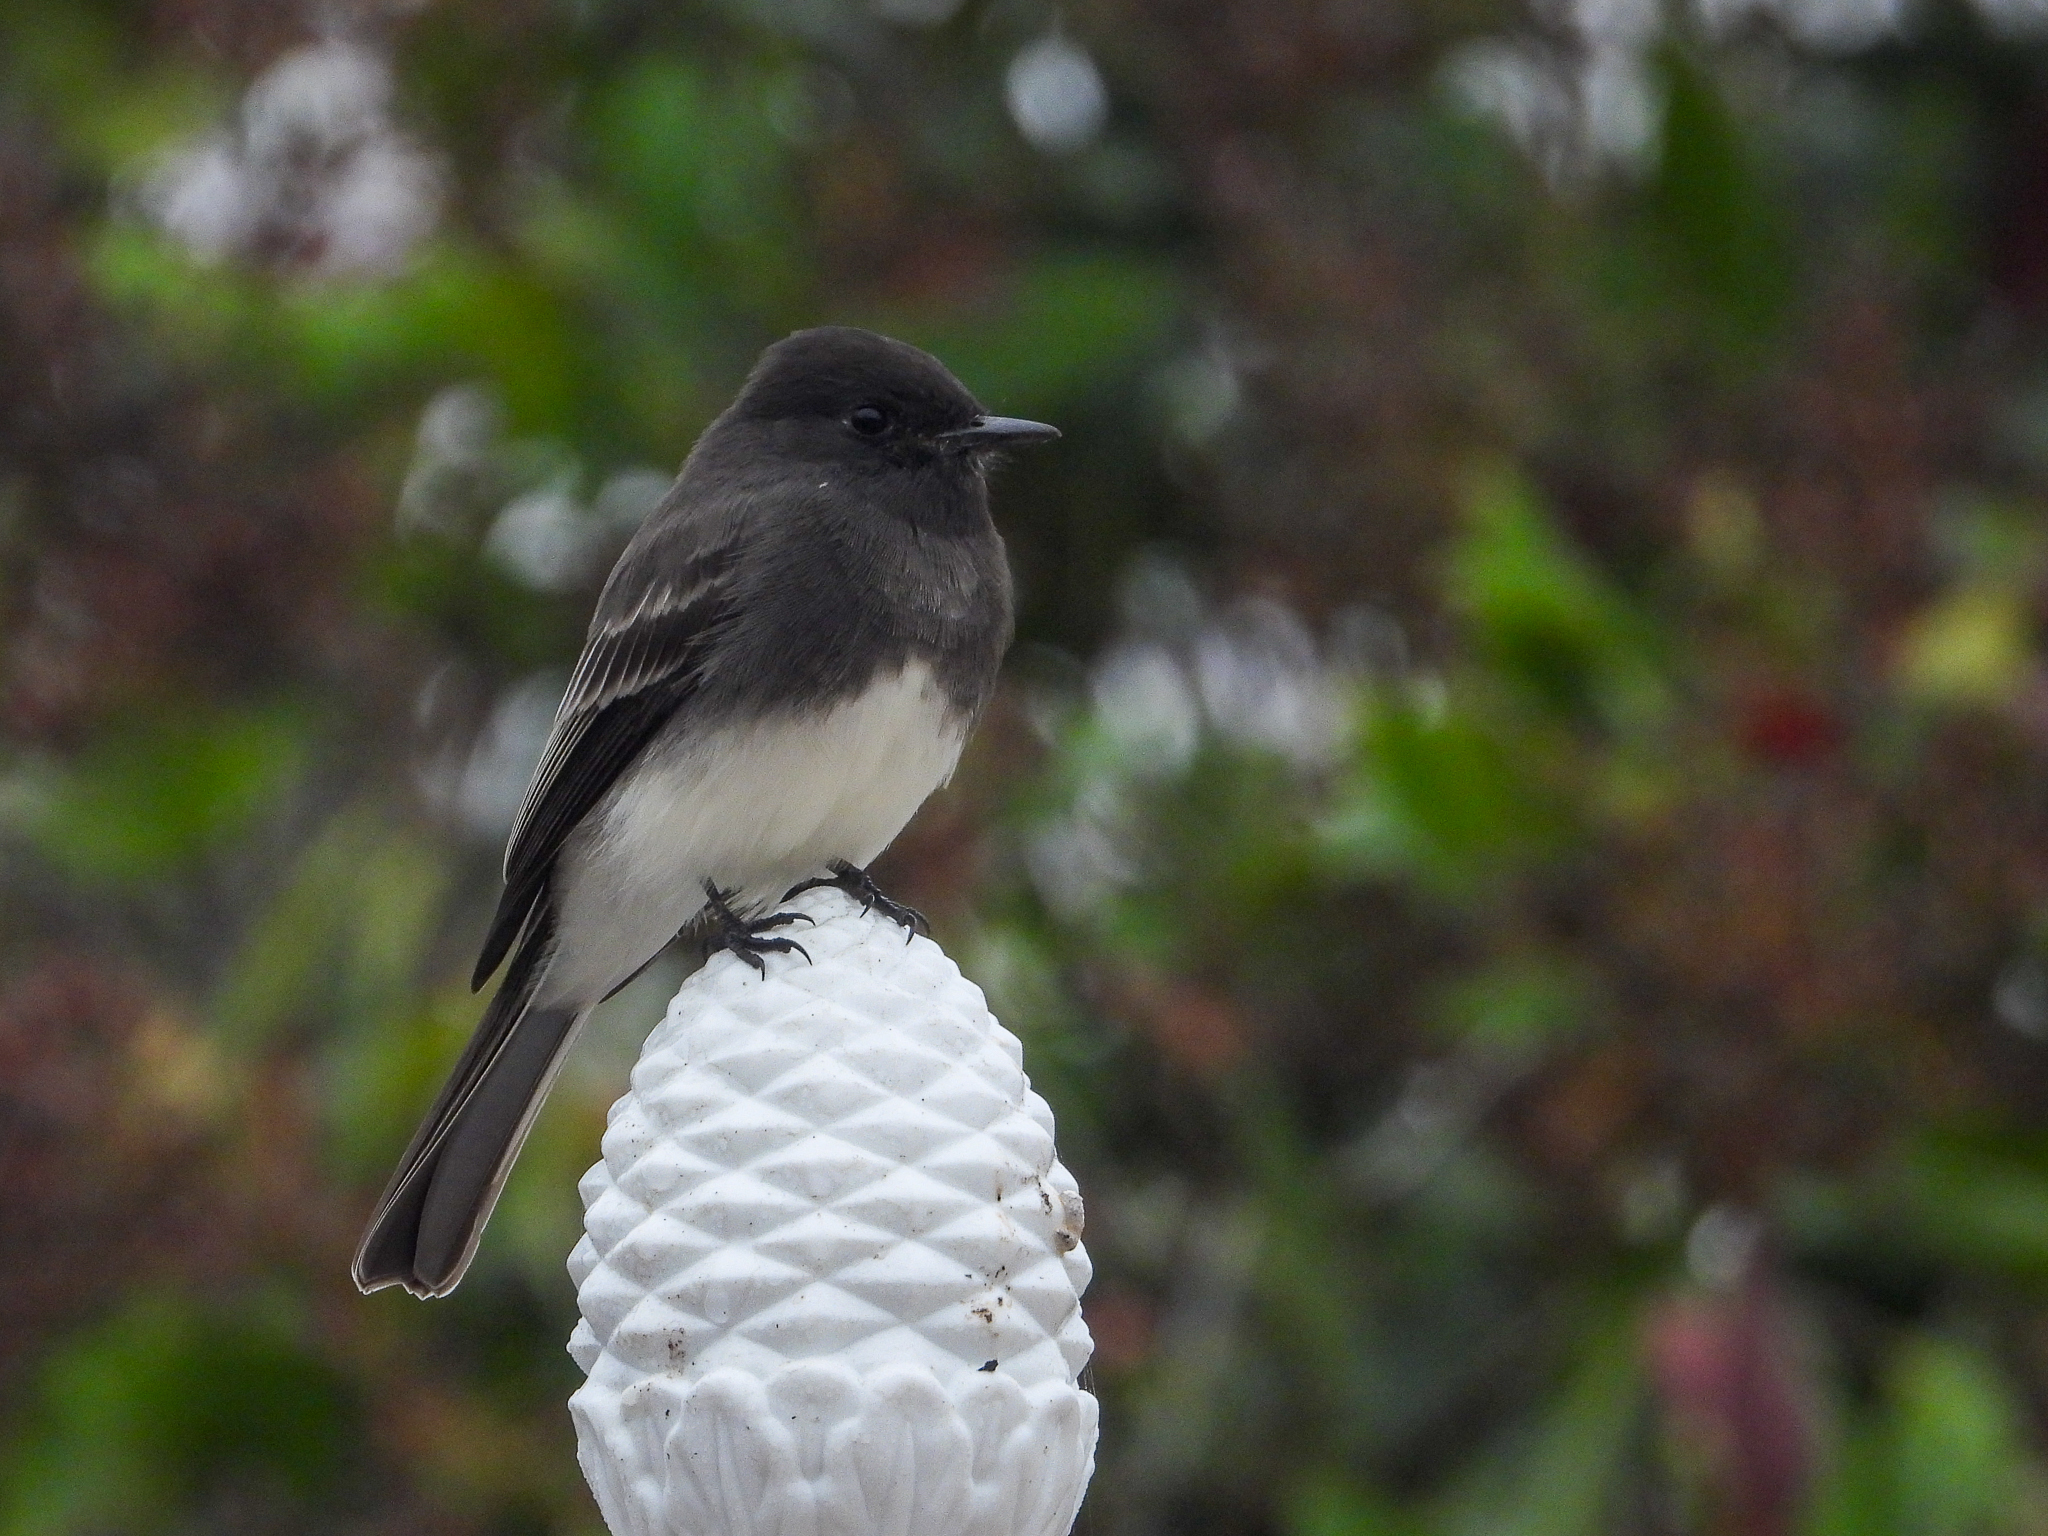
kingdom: Animalia
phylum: Chordata
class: Aves
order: Passeriformes
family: Tyrannidae
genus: Sayornis
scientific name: Sayornis nigricans
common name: Black phoebe
